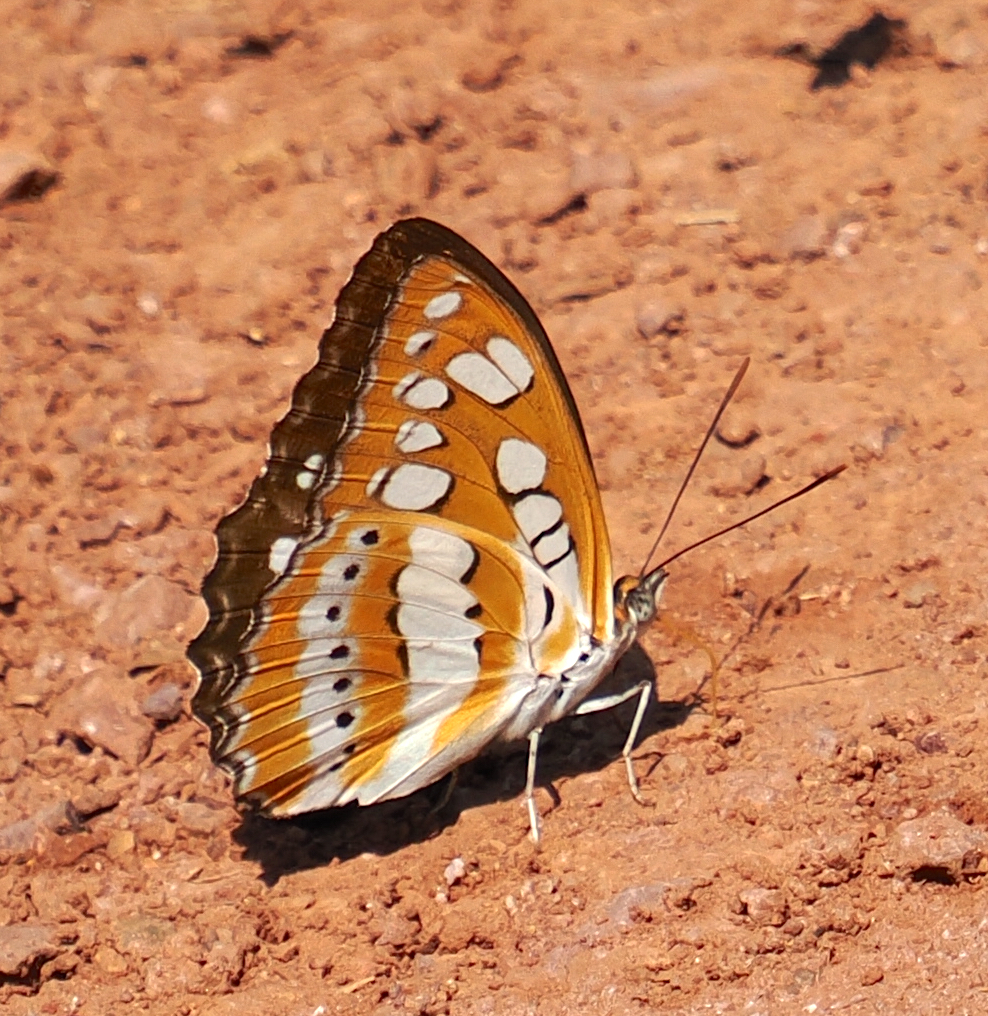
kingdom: Animalia
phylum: Arthropoda
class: Insecta
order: Lepidoptera
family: Nymphalidae
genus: Parathyma
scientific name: Parathyma perius
